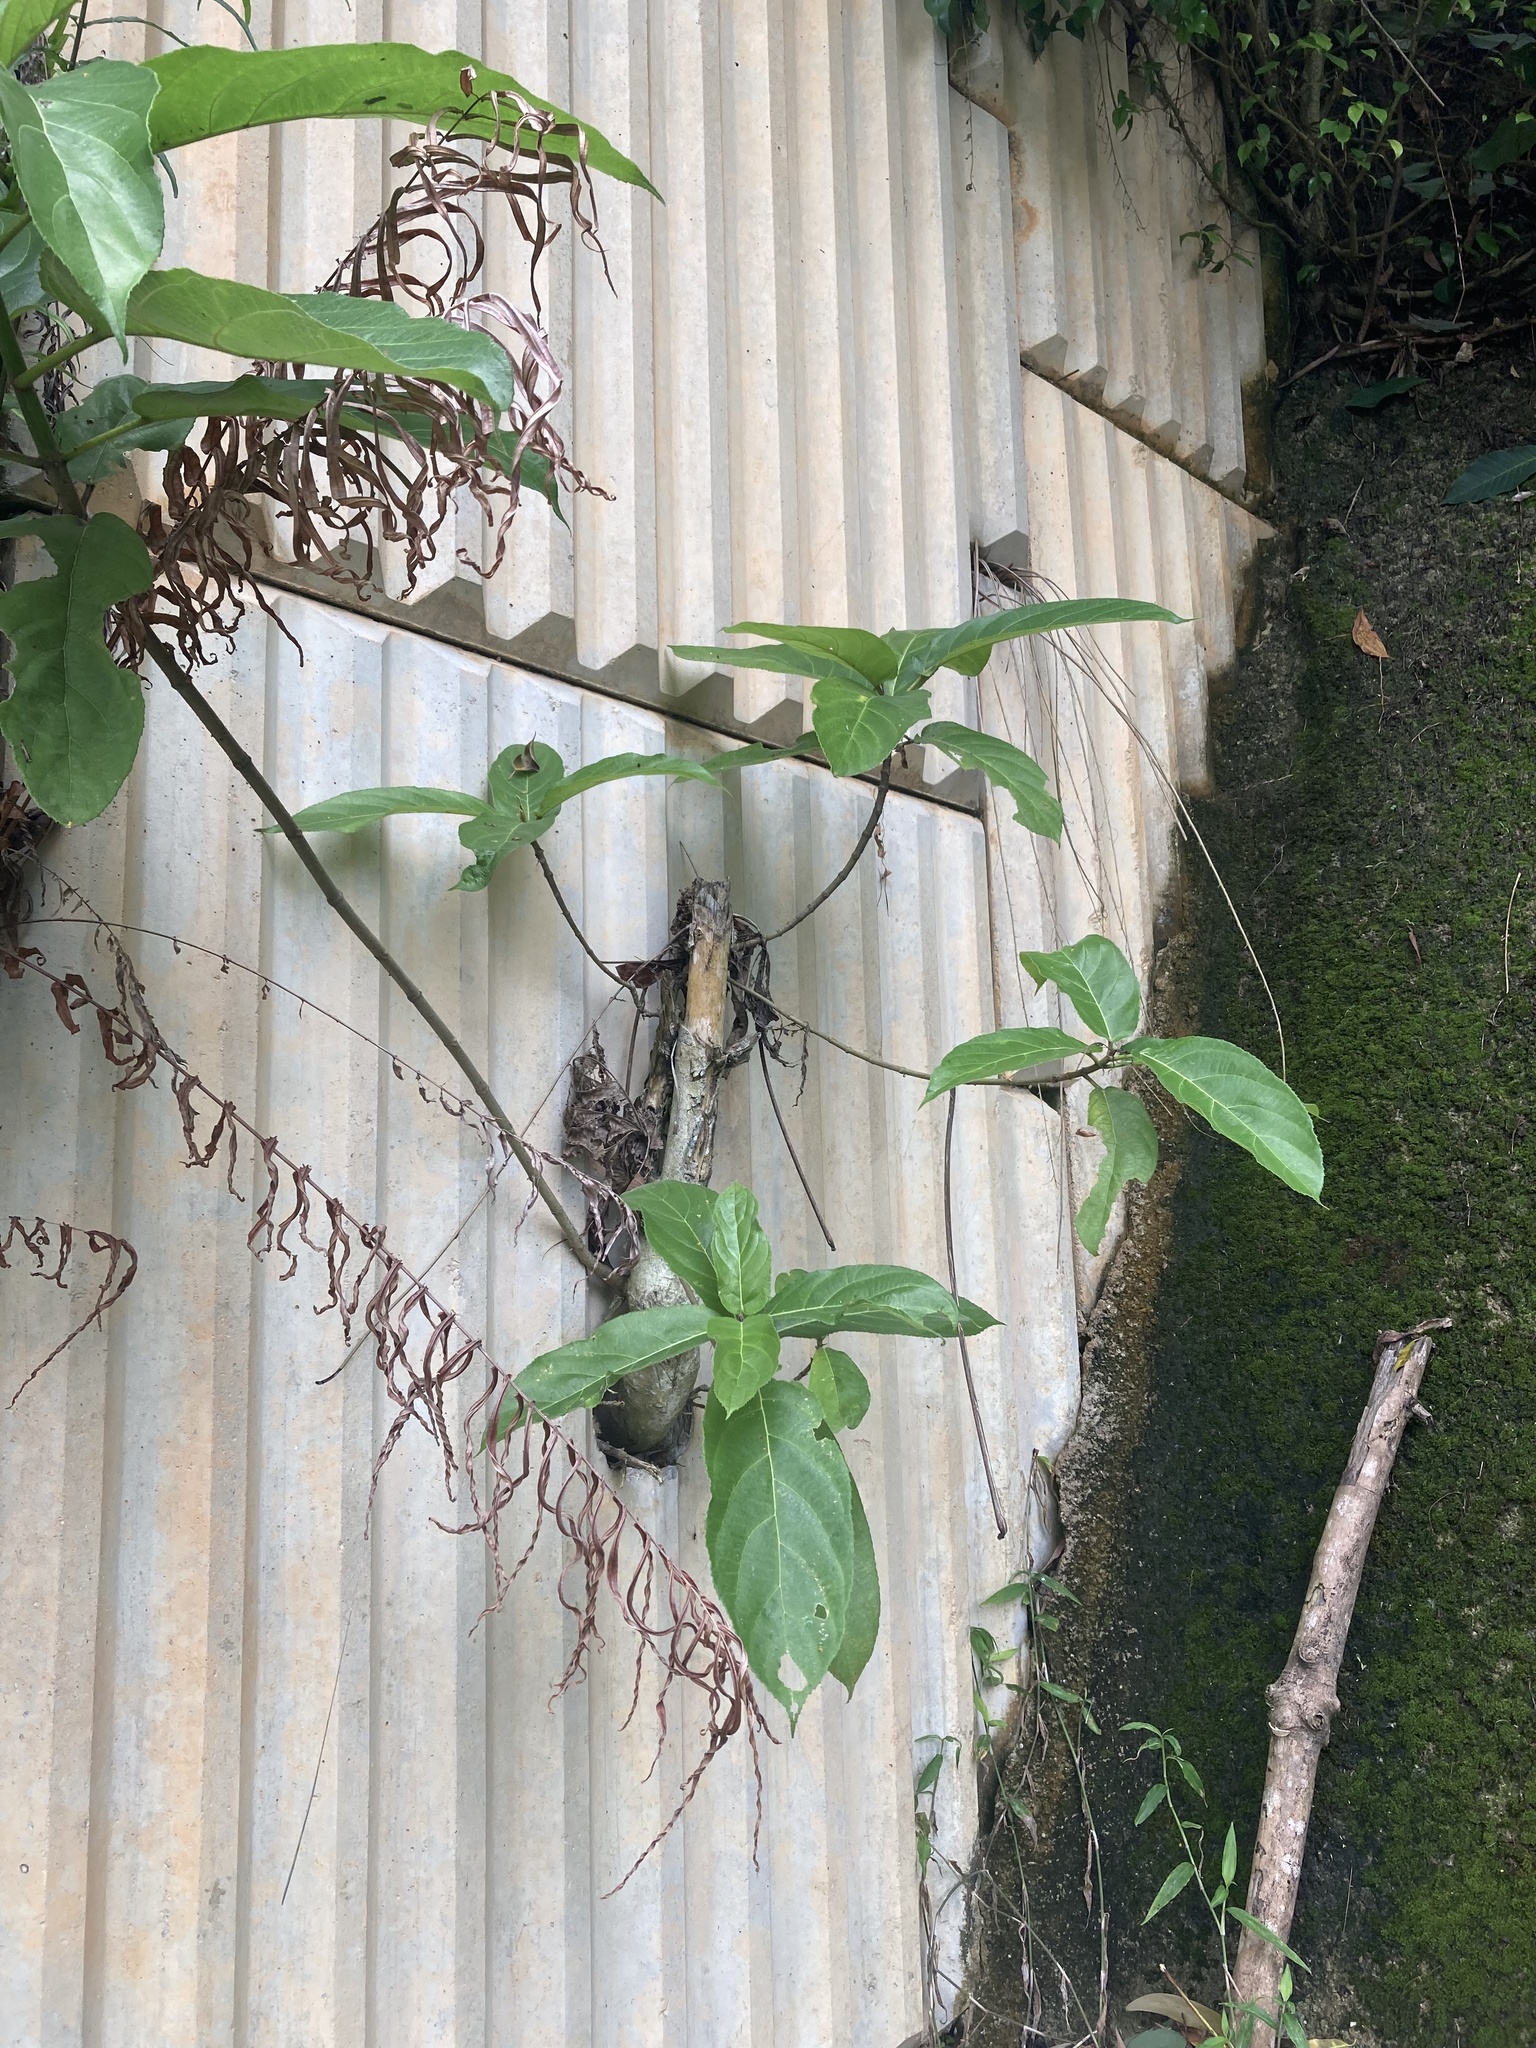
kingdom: Plantae
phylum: Tracheophyta
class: Magnoliopsida
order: Rosales
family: Moraceae
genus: Ficus
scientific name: Ficus hispida
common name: Hairy fig
